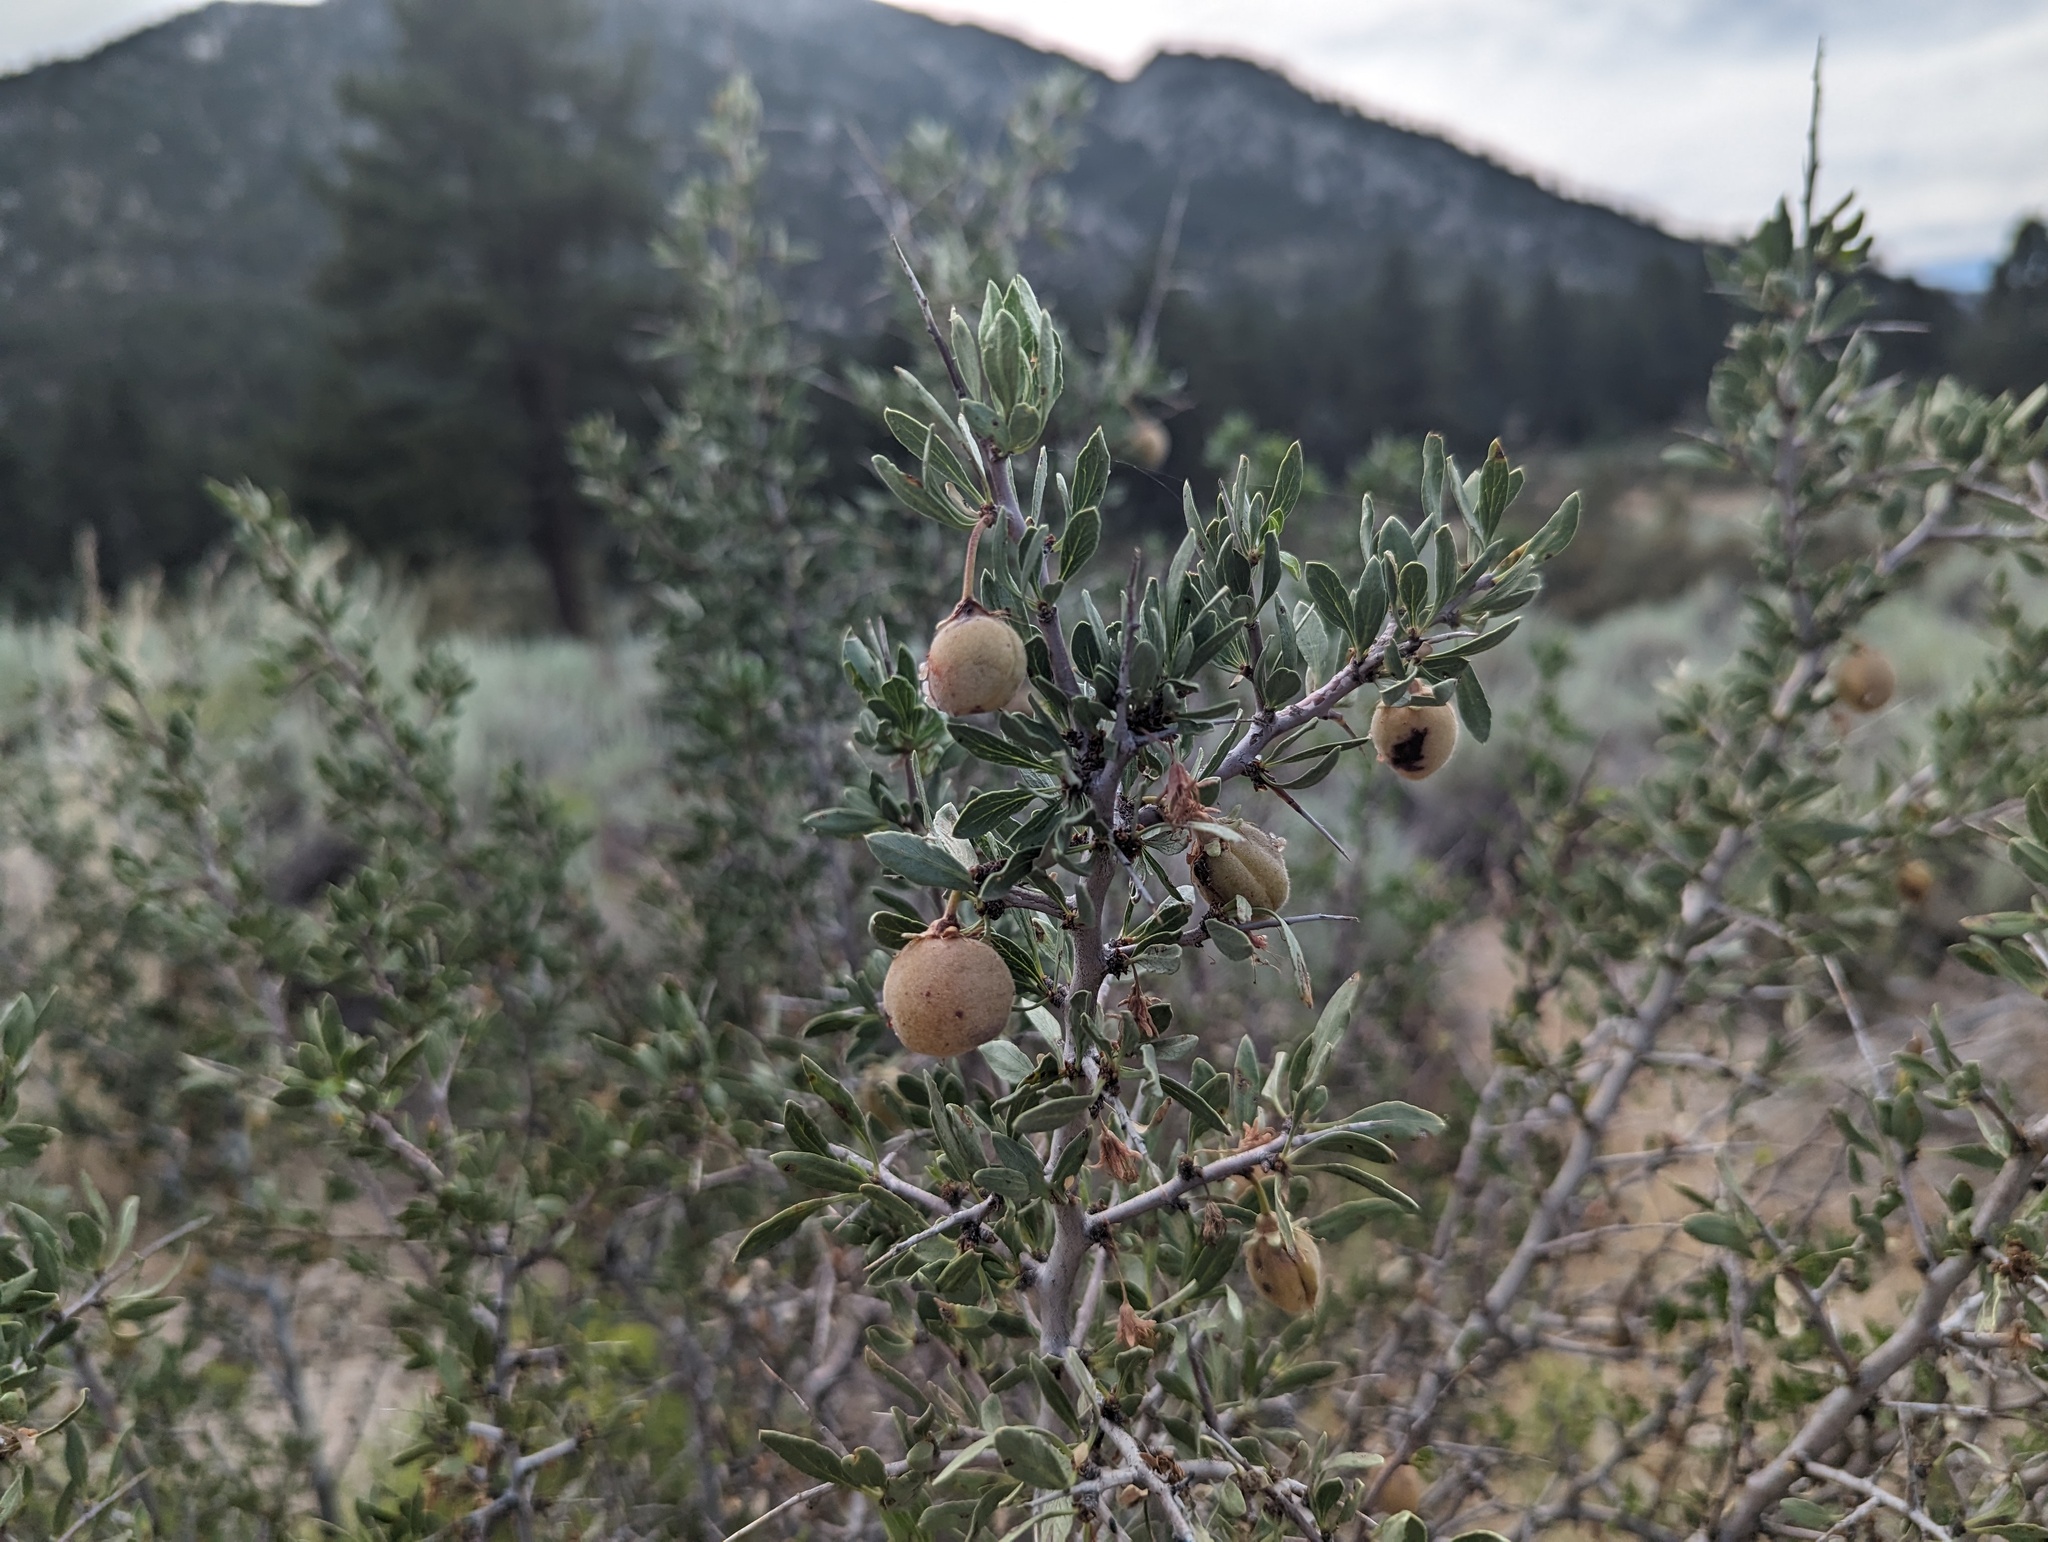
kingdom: Plantae
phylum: Tracheophyta
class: Magnoliopsida
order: Rosales
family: Rosaceae
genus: Prunus
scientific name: Prunus andersonii
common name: Desert peach
